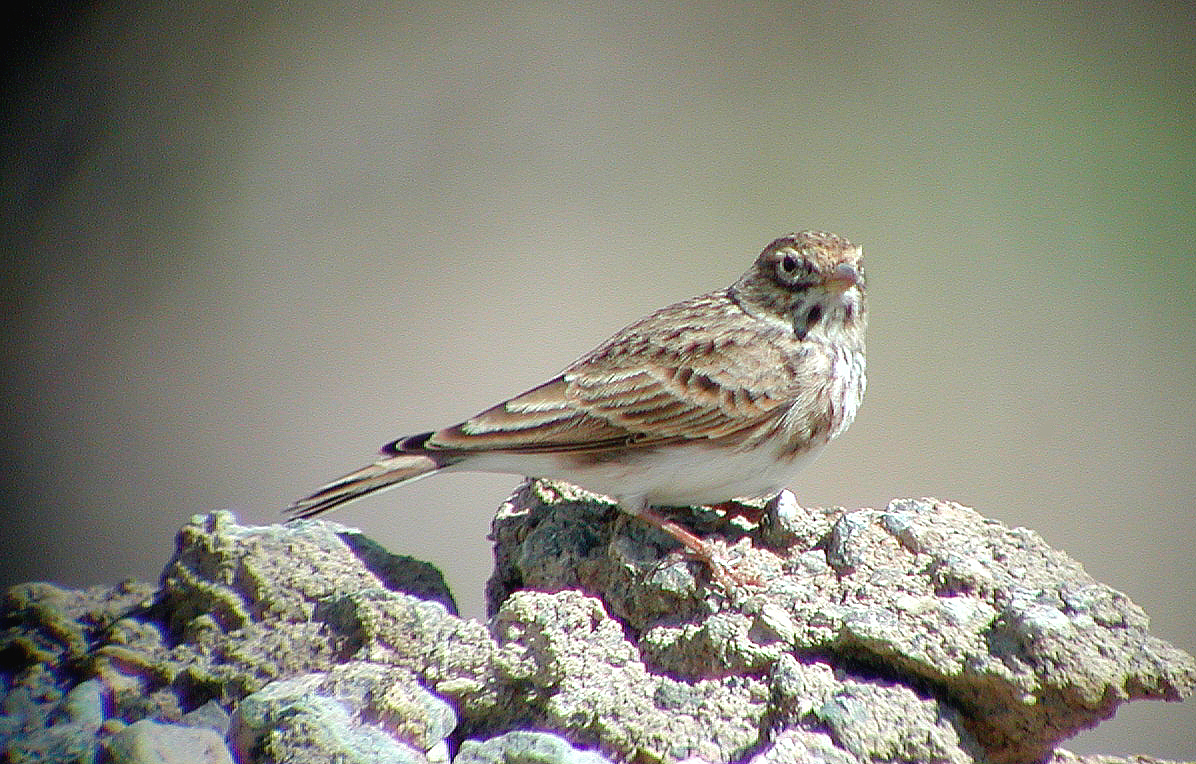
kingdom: Animalia
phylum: Chordata
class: Aves
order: Passeriformes
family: Alaudidae
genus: Calandrella
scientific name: Calandrella rufescens
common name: Lesser short-toed lark
